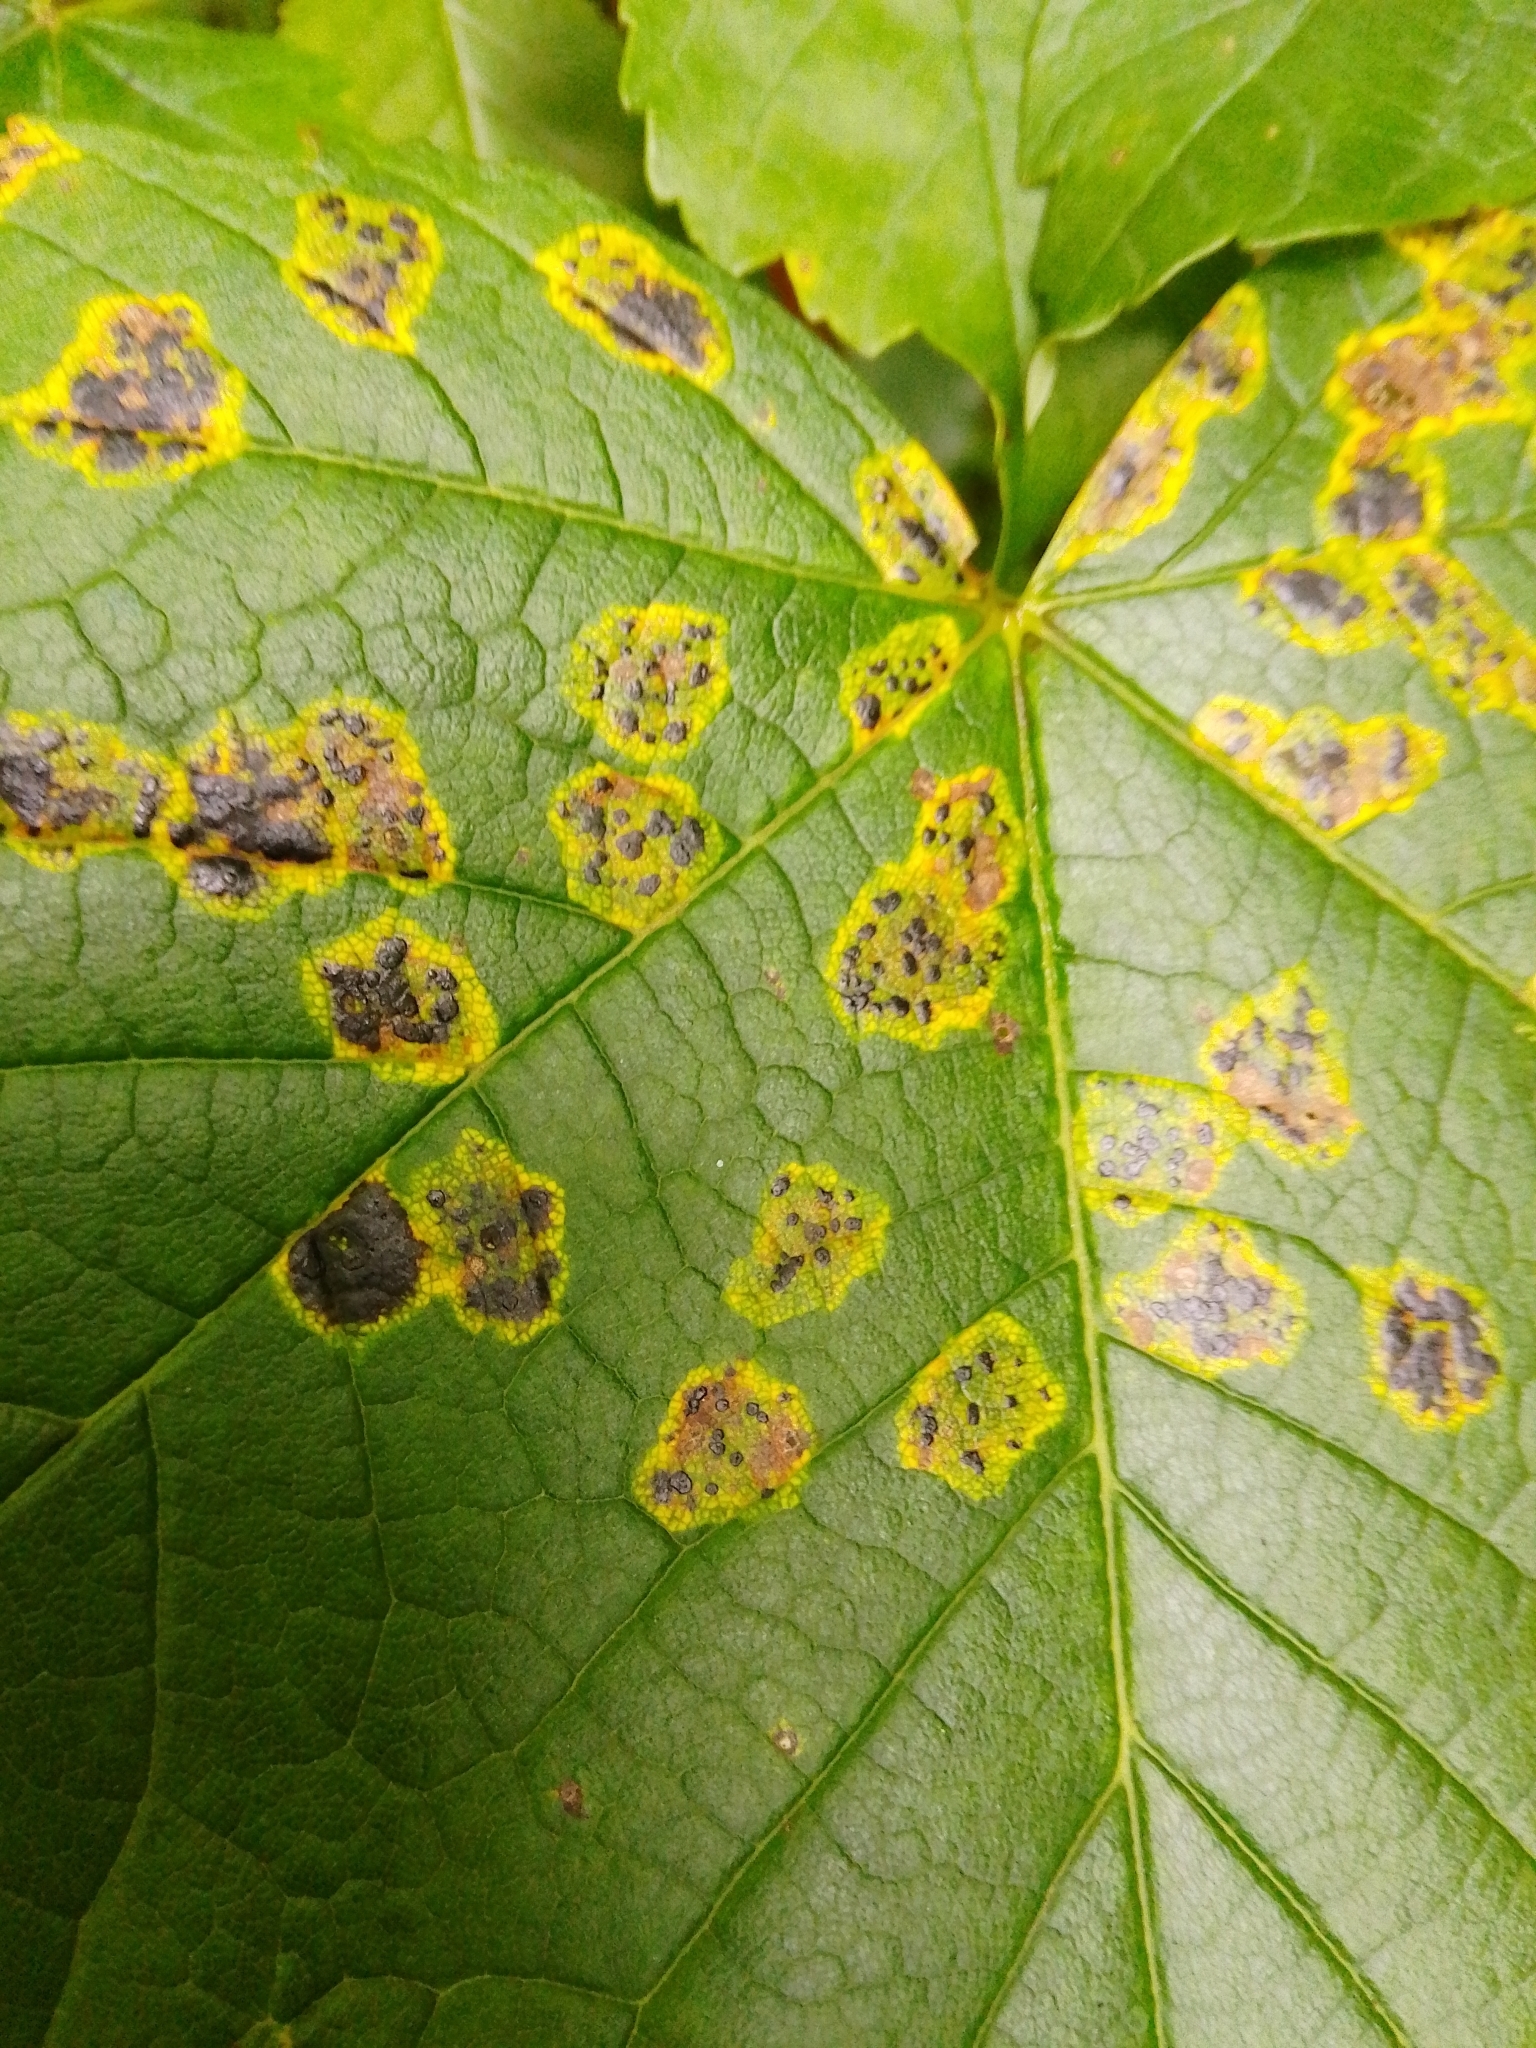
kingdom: Fungi
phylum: Ascomycota
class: Leotiomycetes
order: Rhytismatales
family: Rhytismataceae
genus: Rhytisma
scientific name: Rhytisma acerinum
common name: European tar spot
